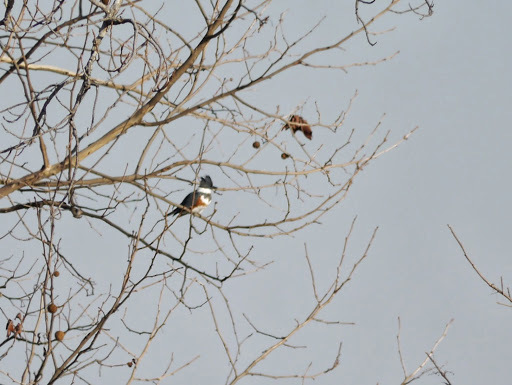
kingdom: Animalia
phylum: Chordata
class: Aves
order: Coraciiformes
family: Alcedinidae
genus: Megaceryle
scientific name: Megaceryle alcyon
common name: Belted kingfisher
